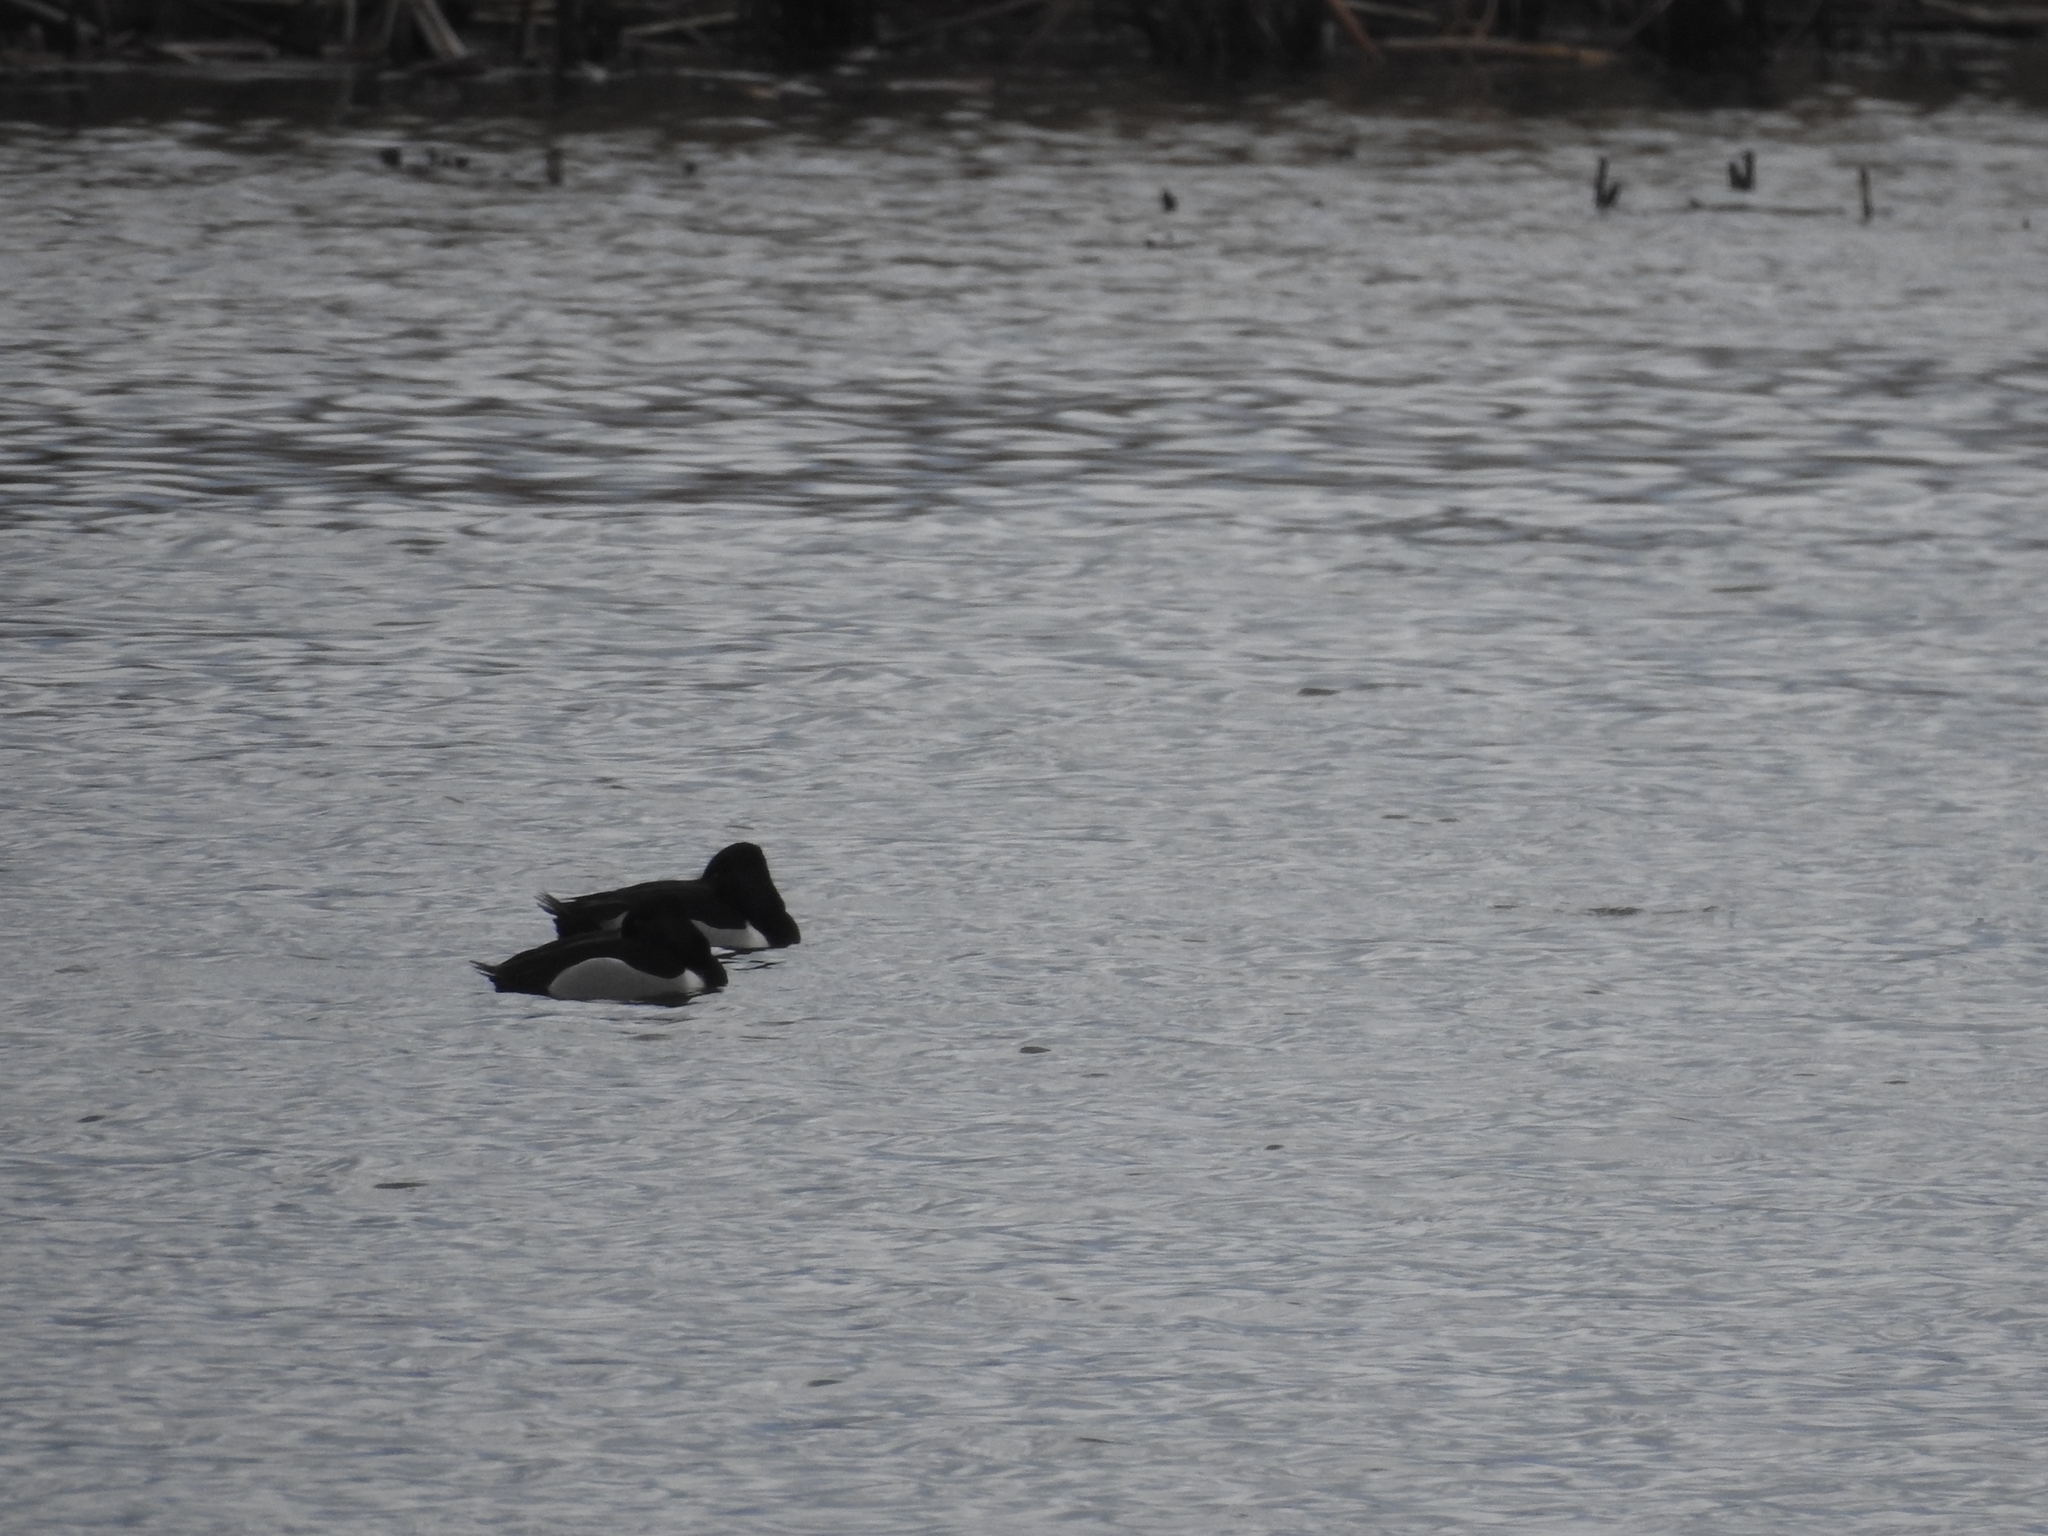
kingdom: Animalia
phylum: Chordata
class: Aves
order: Anseriformes
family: Anatidae
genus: Aythya
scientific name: Aythya collaris
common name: Ring-necked duck
